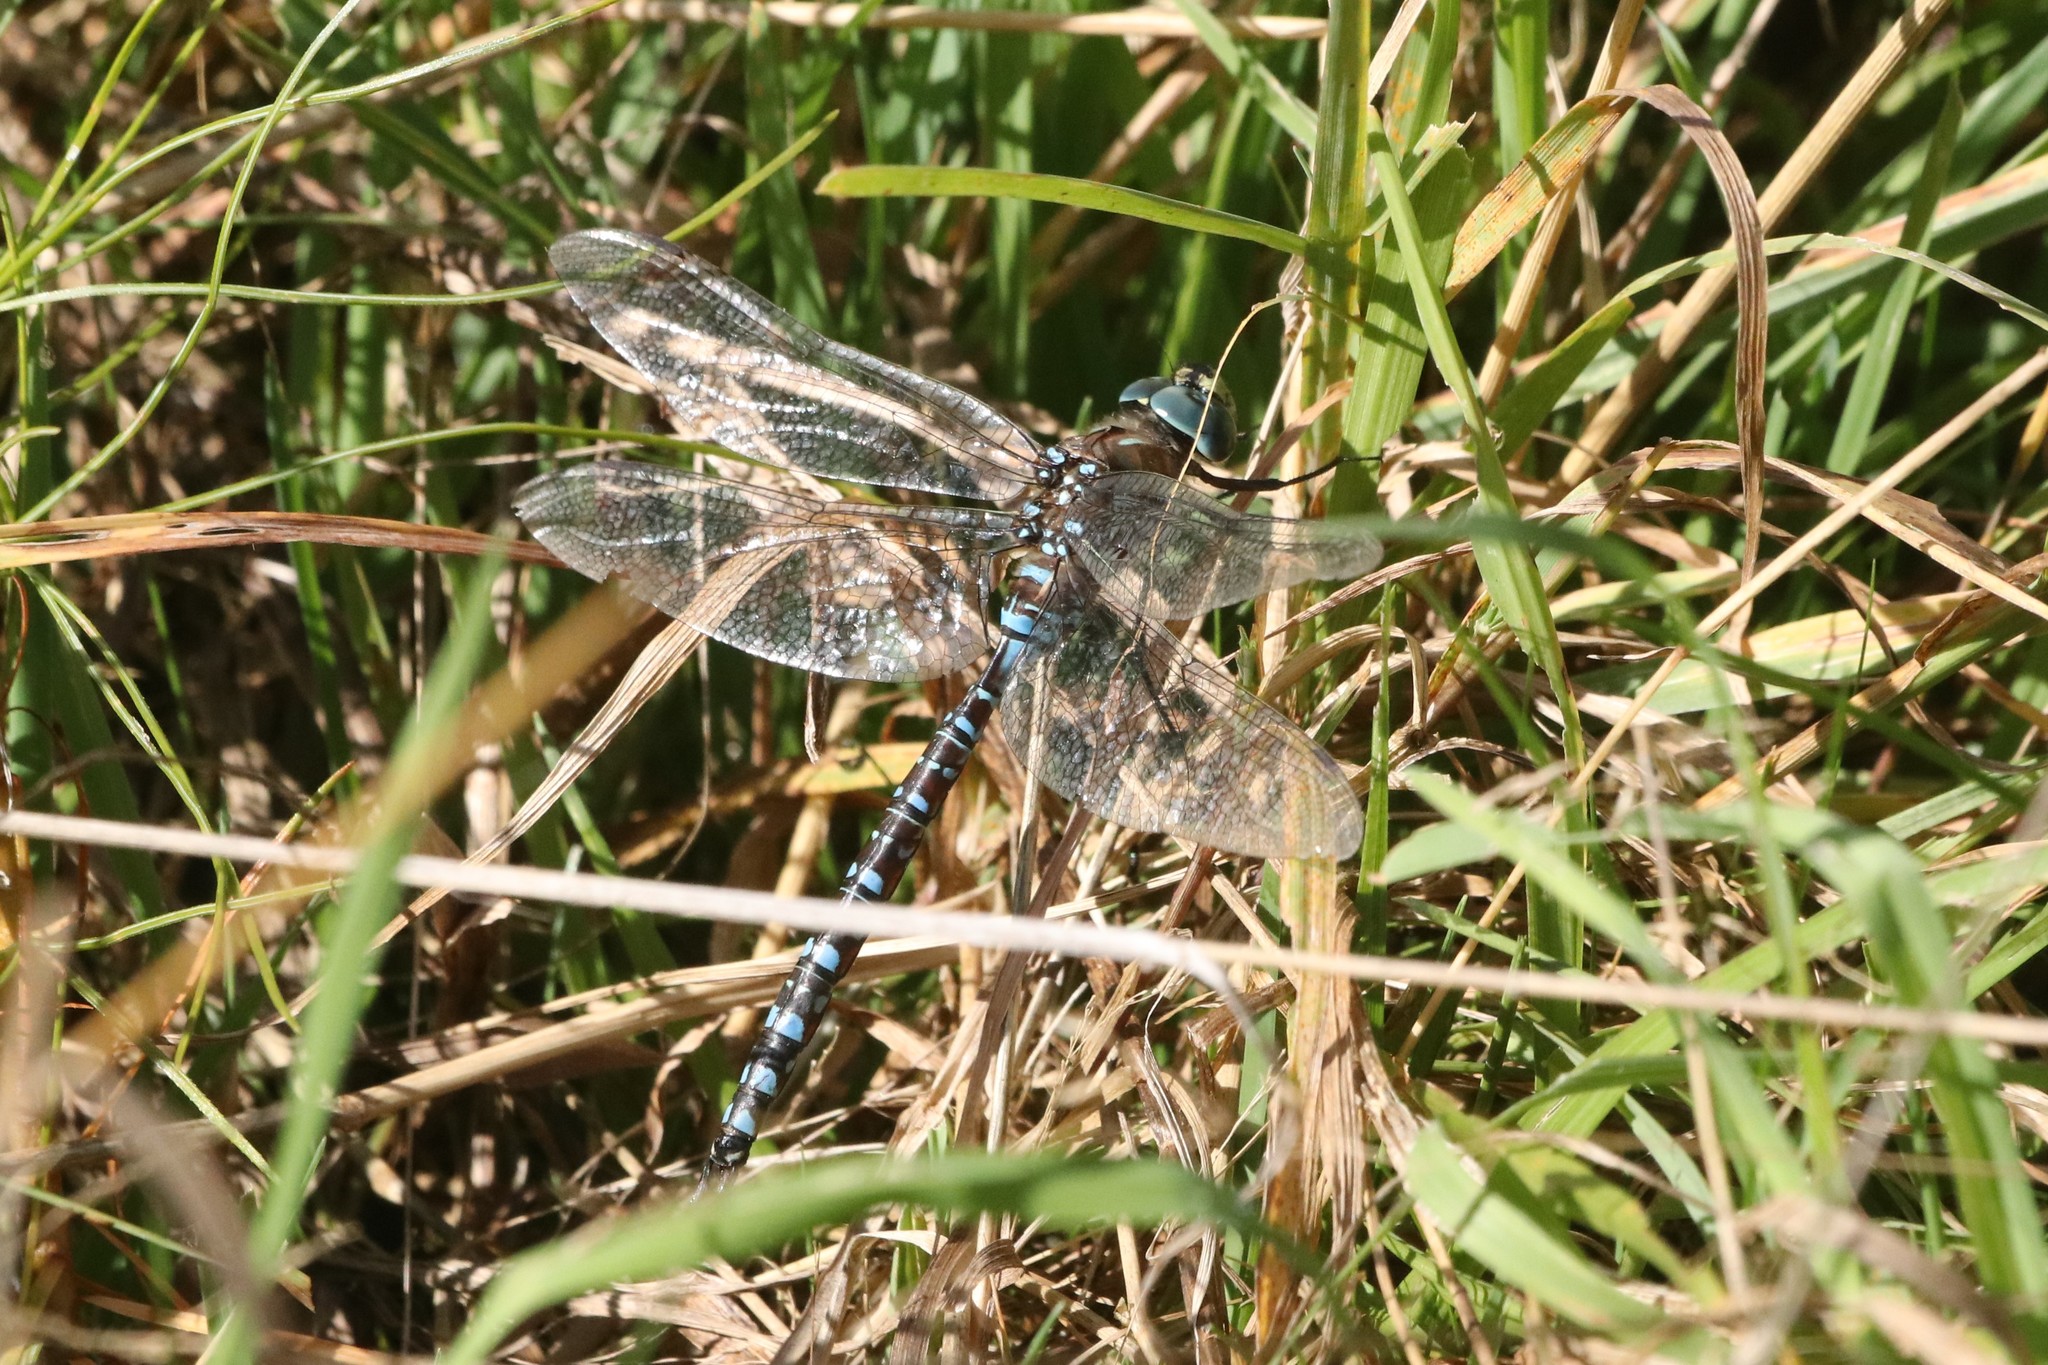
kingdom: Animalia
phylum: Arthropoda
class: Insecta
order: Odonata
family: Aeshnidae
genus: Aeshna
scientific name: Aeshna interrupta
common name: Variable darner
